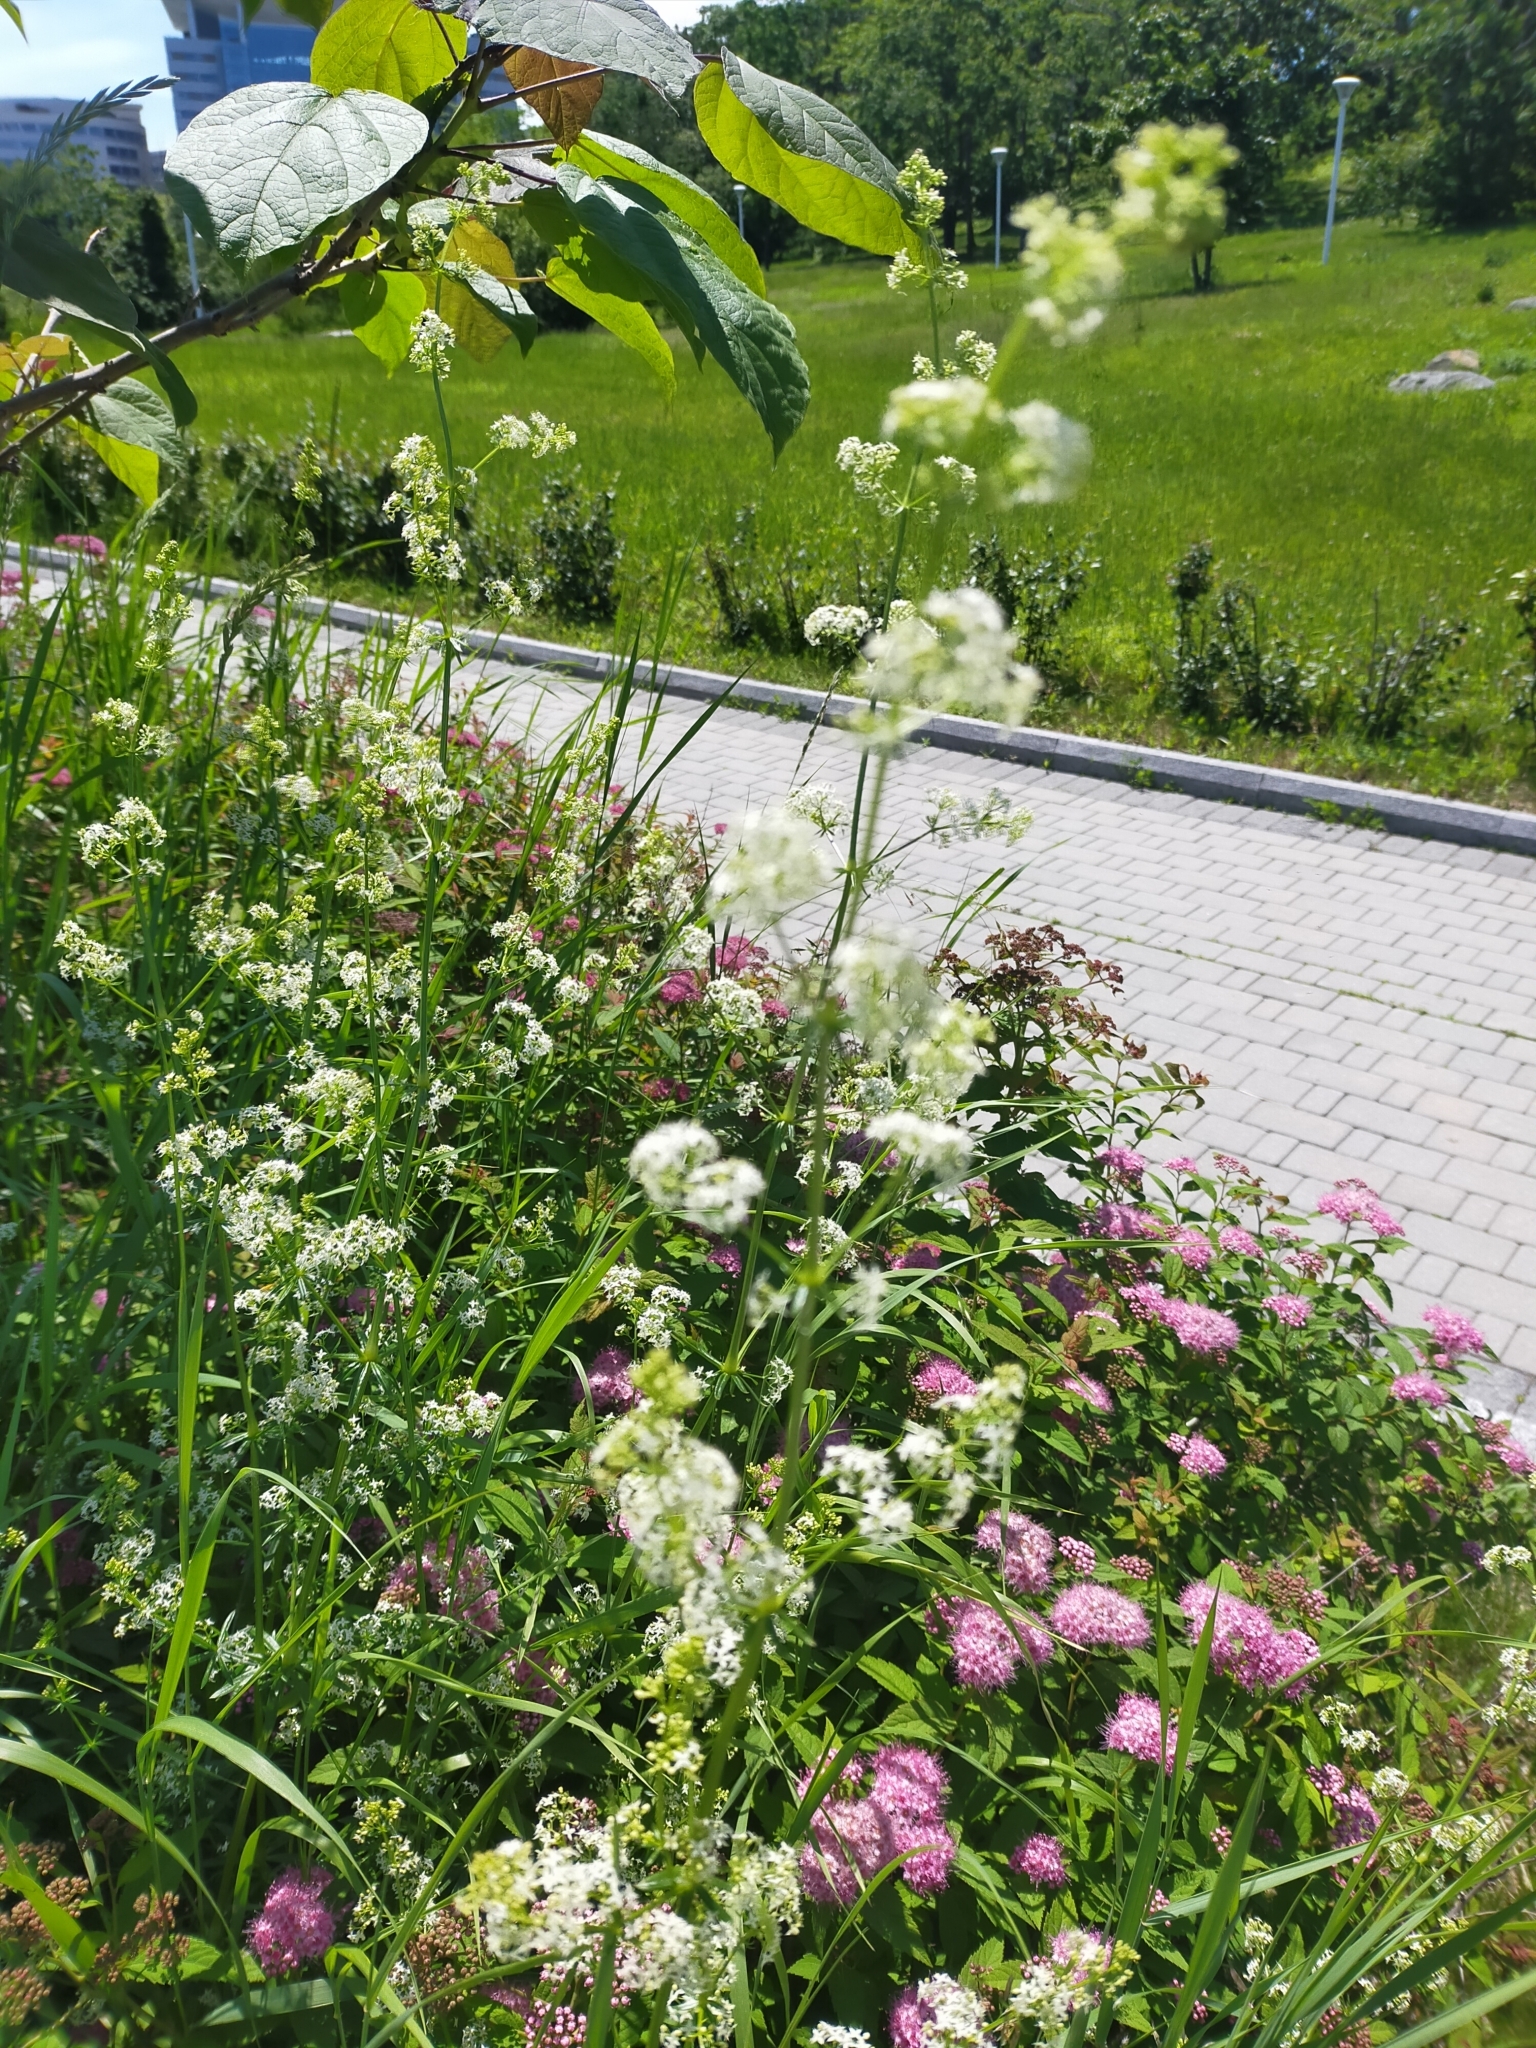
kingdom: Plantae
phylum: Tracheophyta
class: Magnoliopsida
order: Gentianales
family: Rubiaceae
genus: Galium
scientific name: Galium mollugo
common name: Hedge bedstraw
